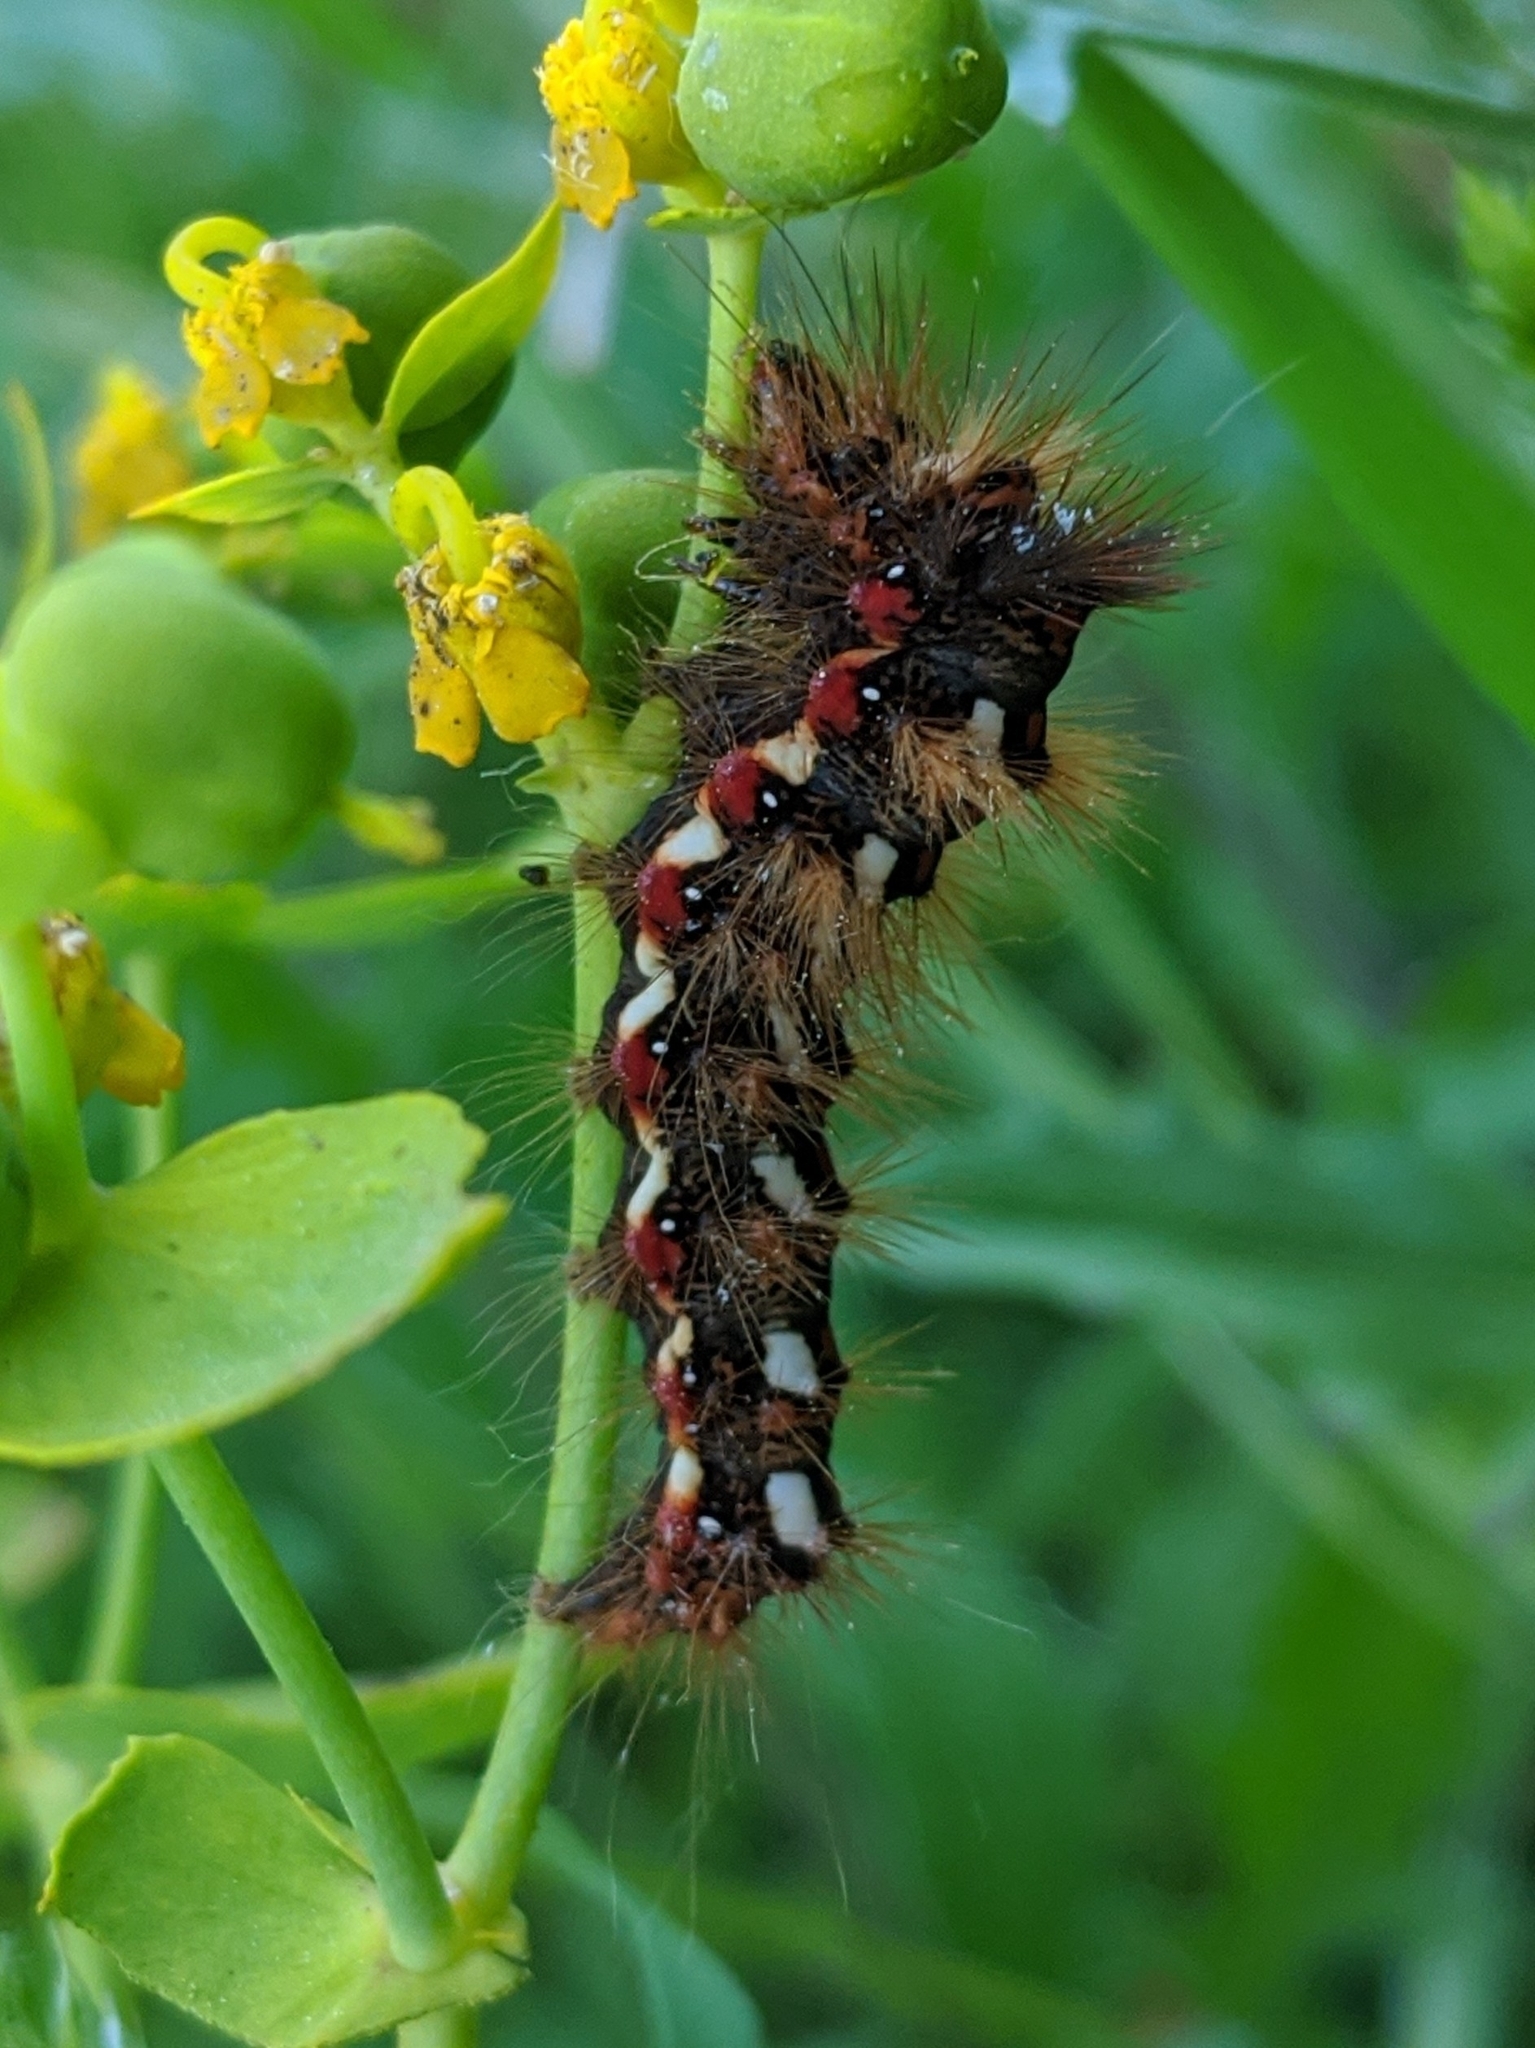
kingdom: Animalia
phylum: Arthropoda
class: Insecta
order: Lepidoptera
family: Noctuidae
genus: Acronicta
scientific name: Acronicta rumicis
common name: Knot grass
